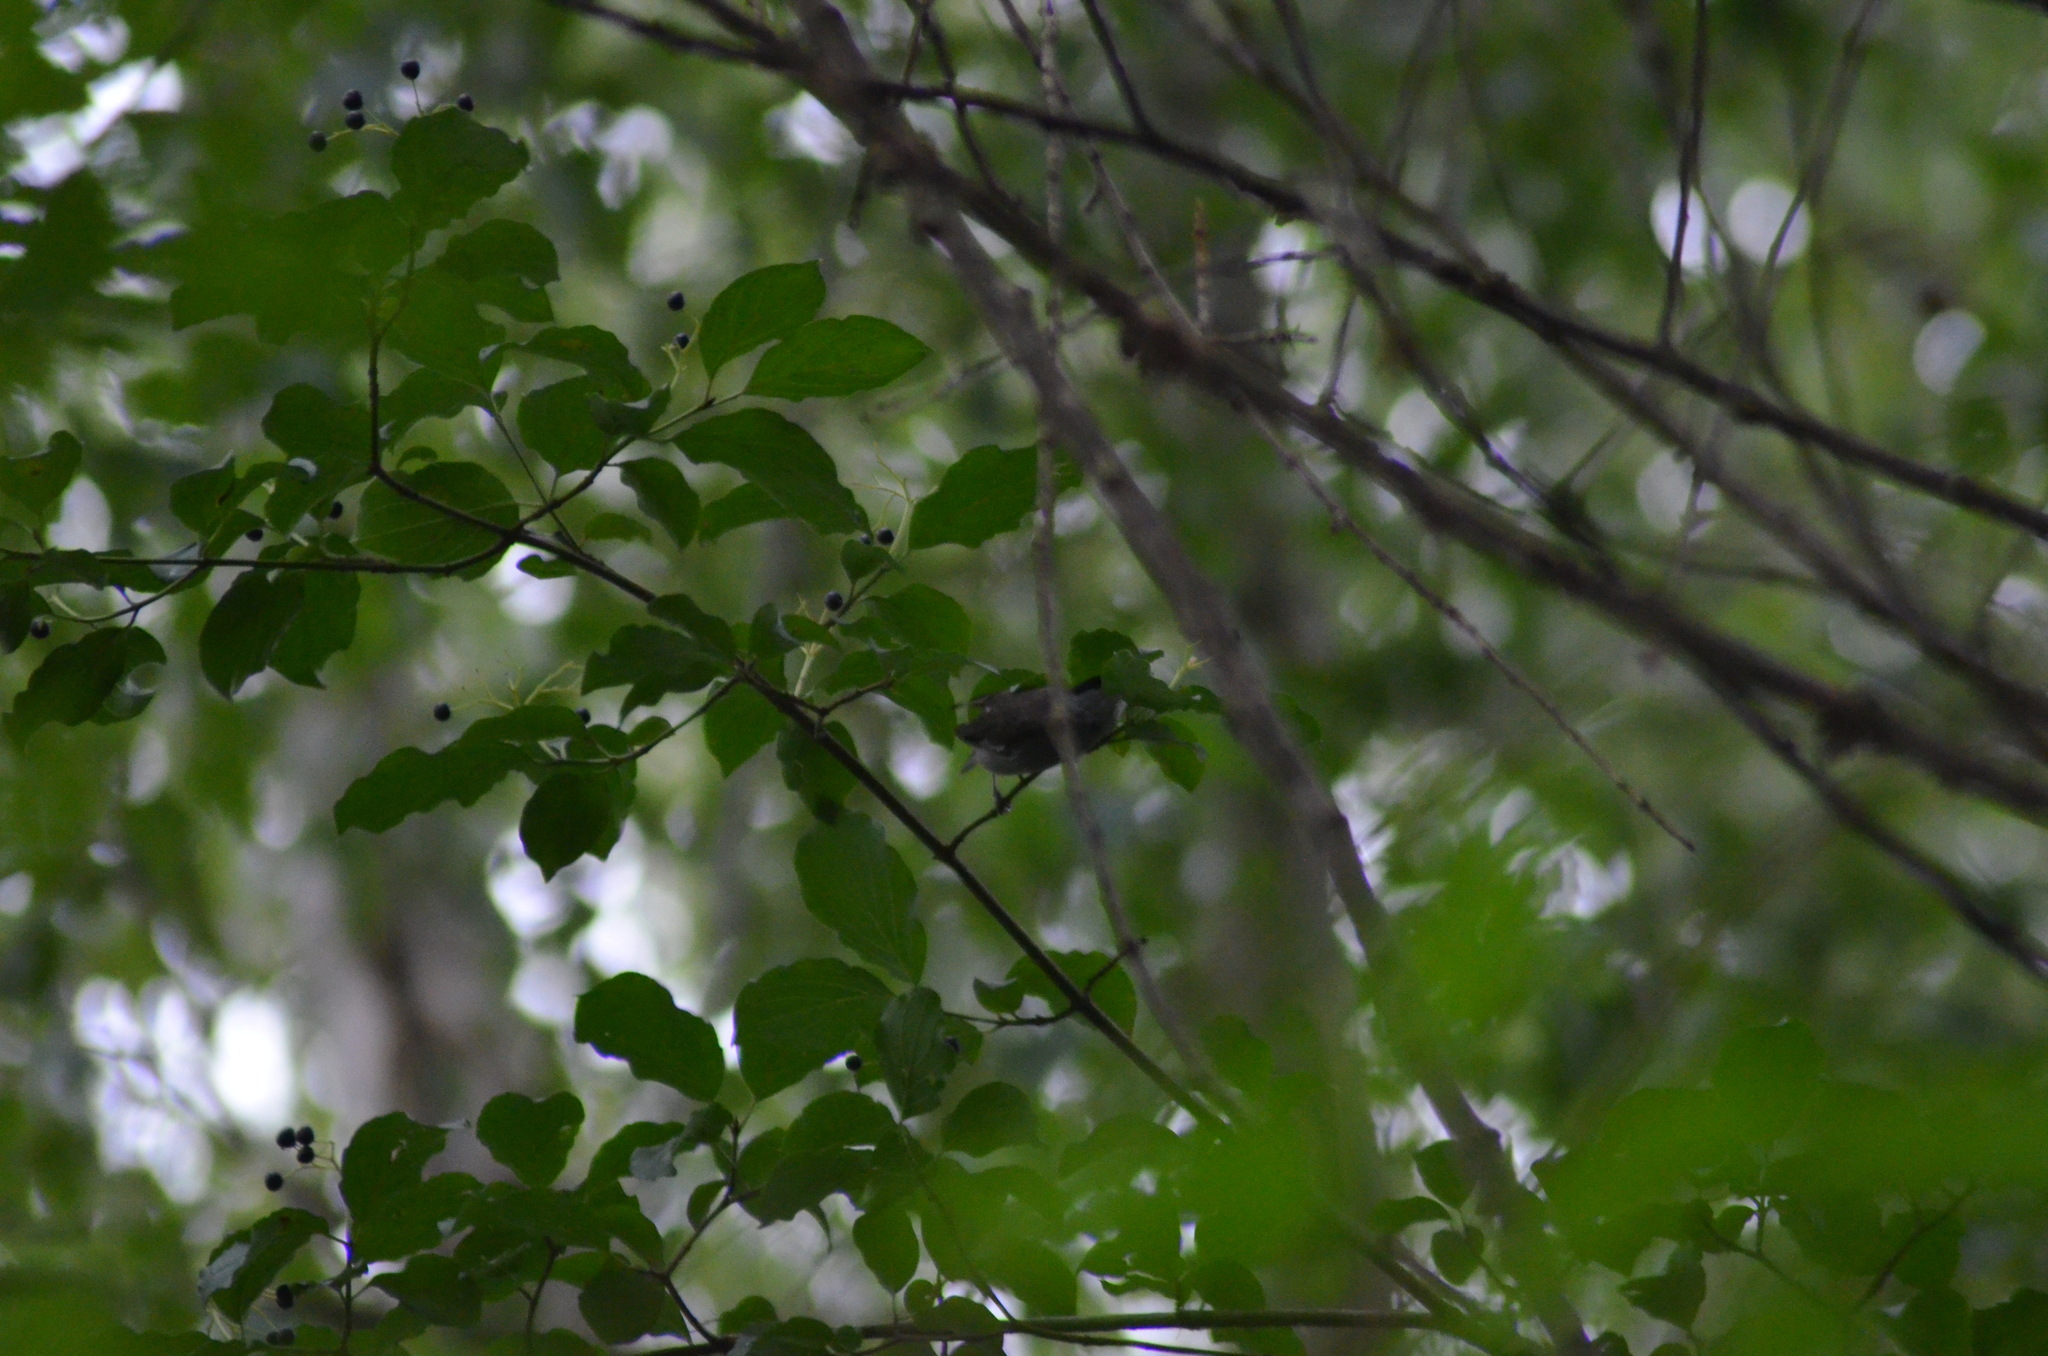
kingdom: Animalia
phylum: Chordata
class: Aves
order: Passeriformes
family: Sylviidae
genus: Sylvia
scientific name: Sylvia atricapilla
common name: Eurasian blackcap
